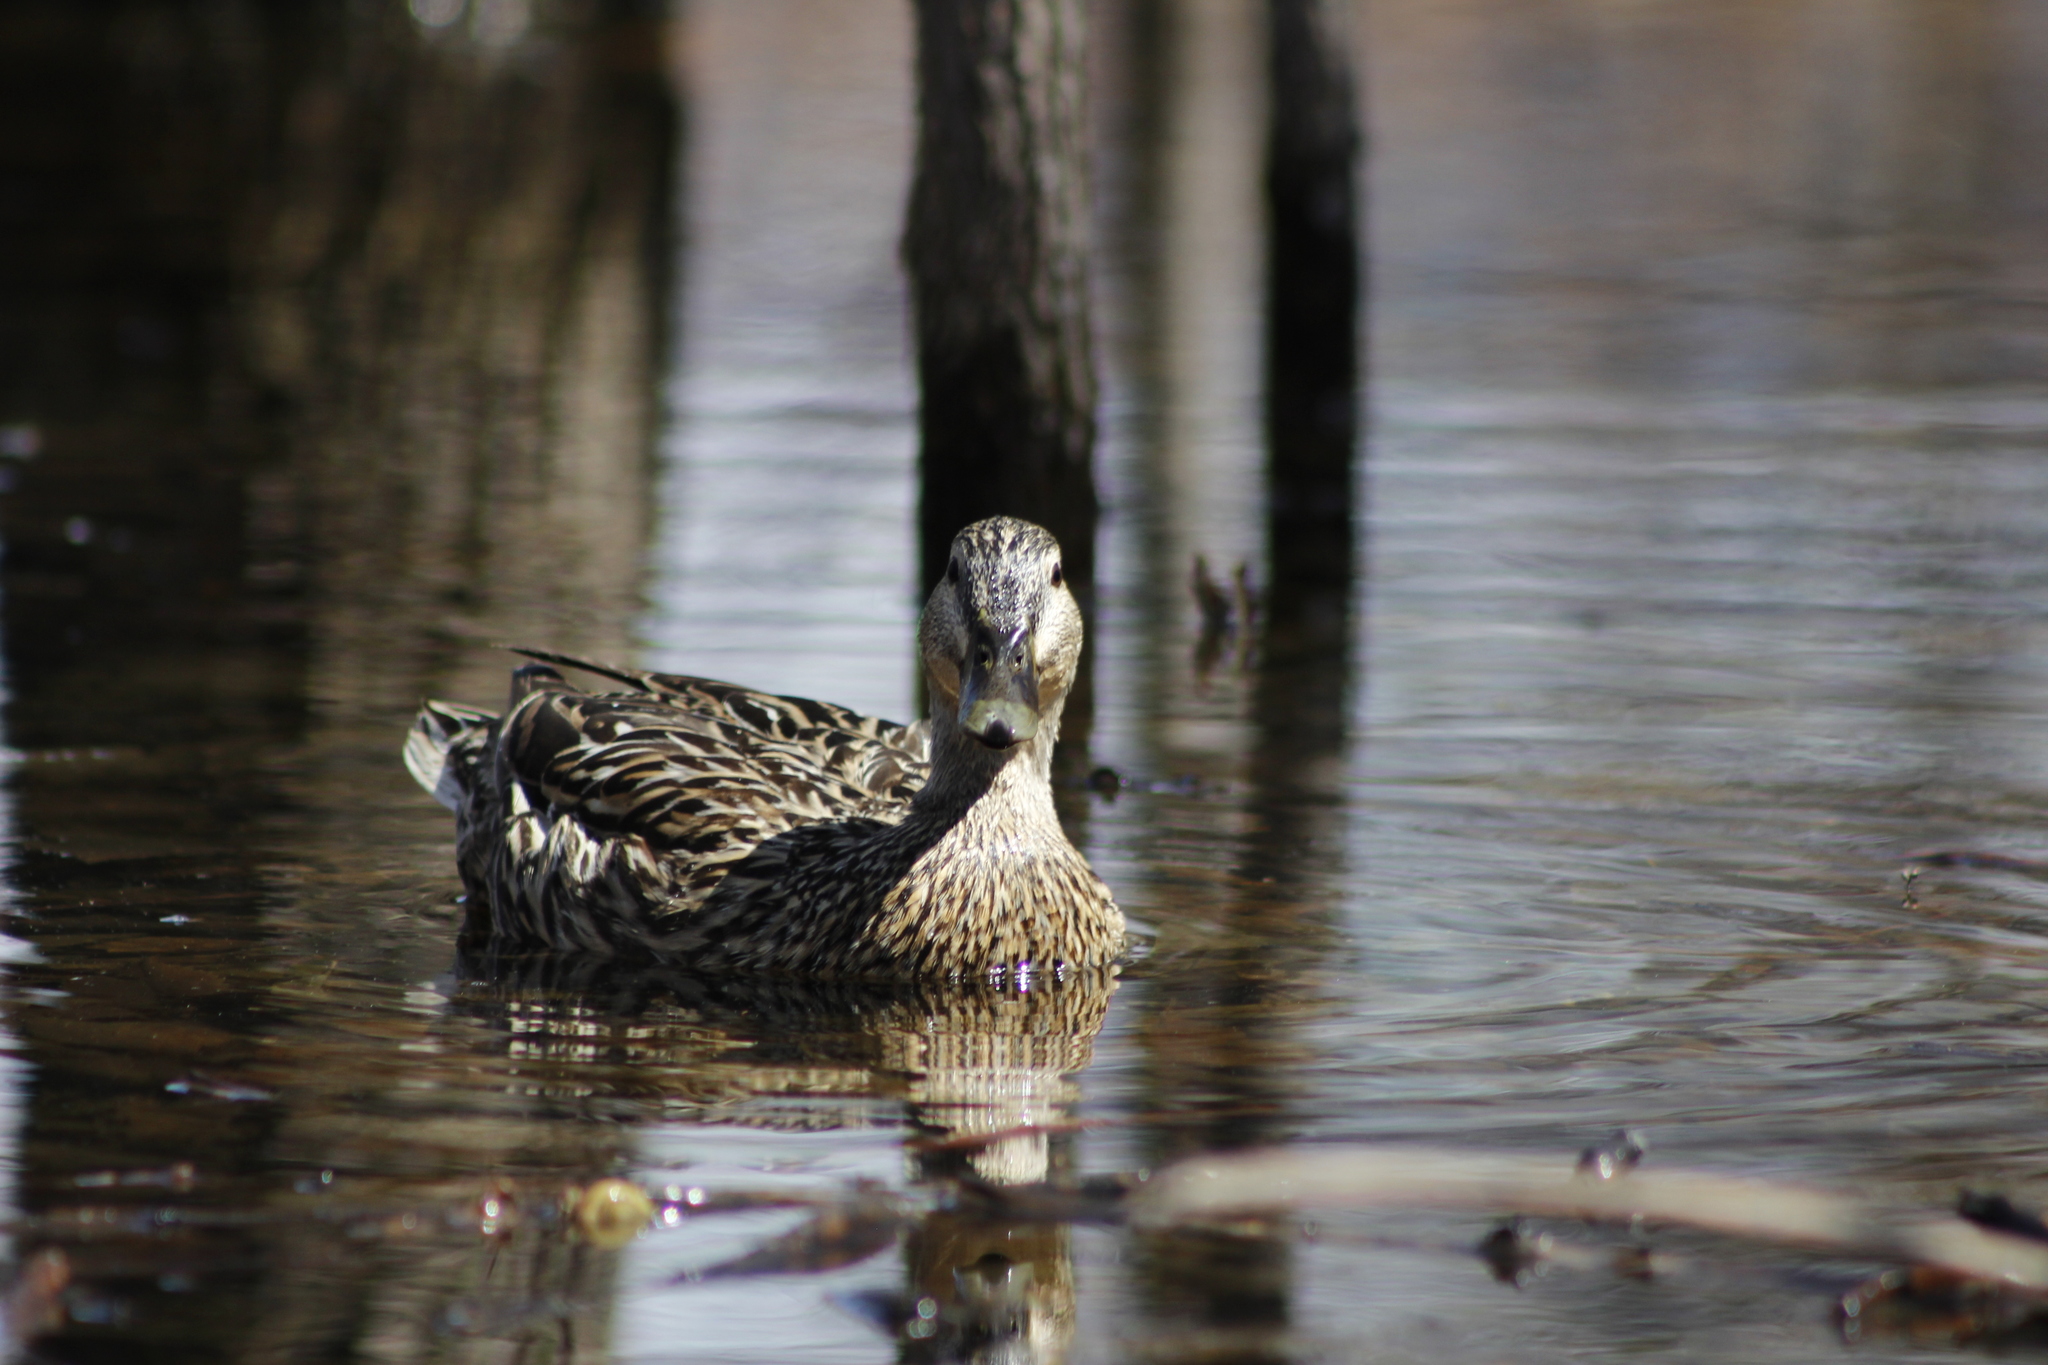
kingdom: Animalia
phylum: Chordata
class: Aves
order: Anseriformes
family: Anatidae
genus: Anas
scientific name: Anas platyrhynchos
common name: Mallard
